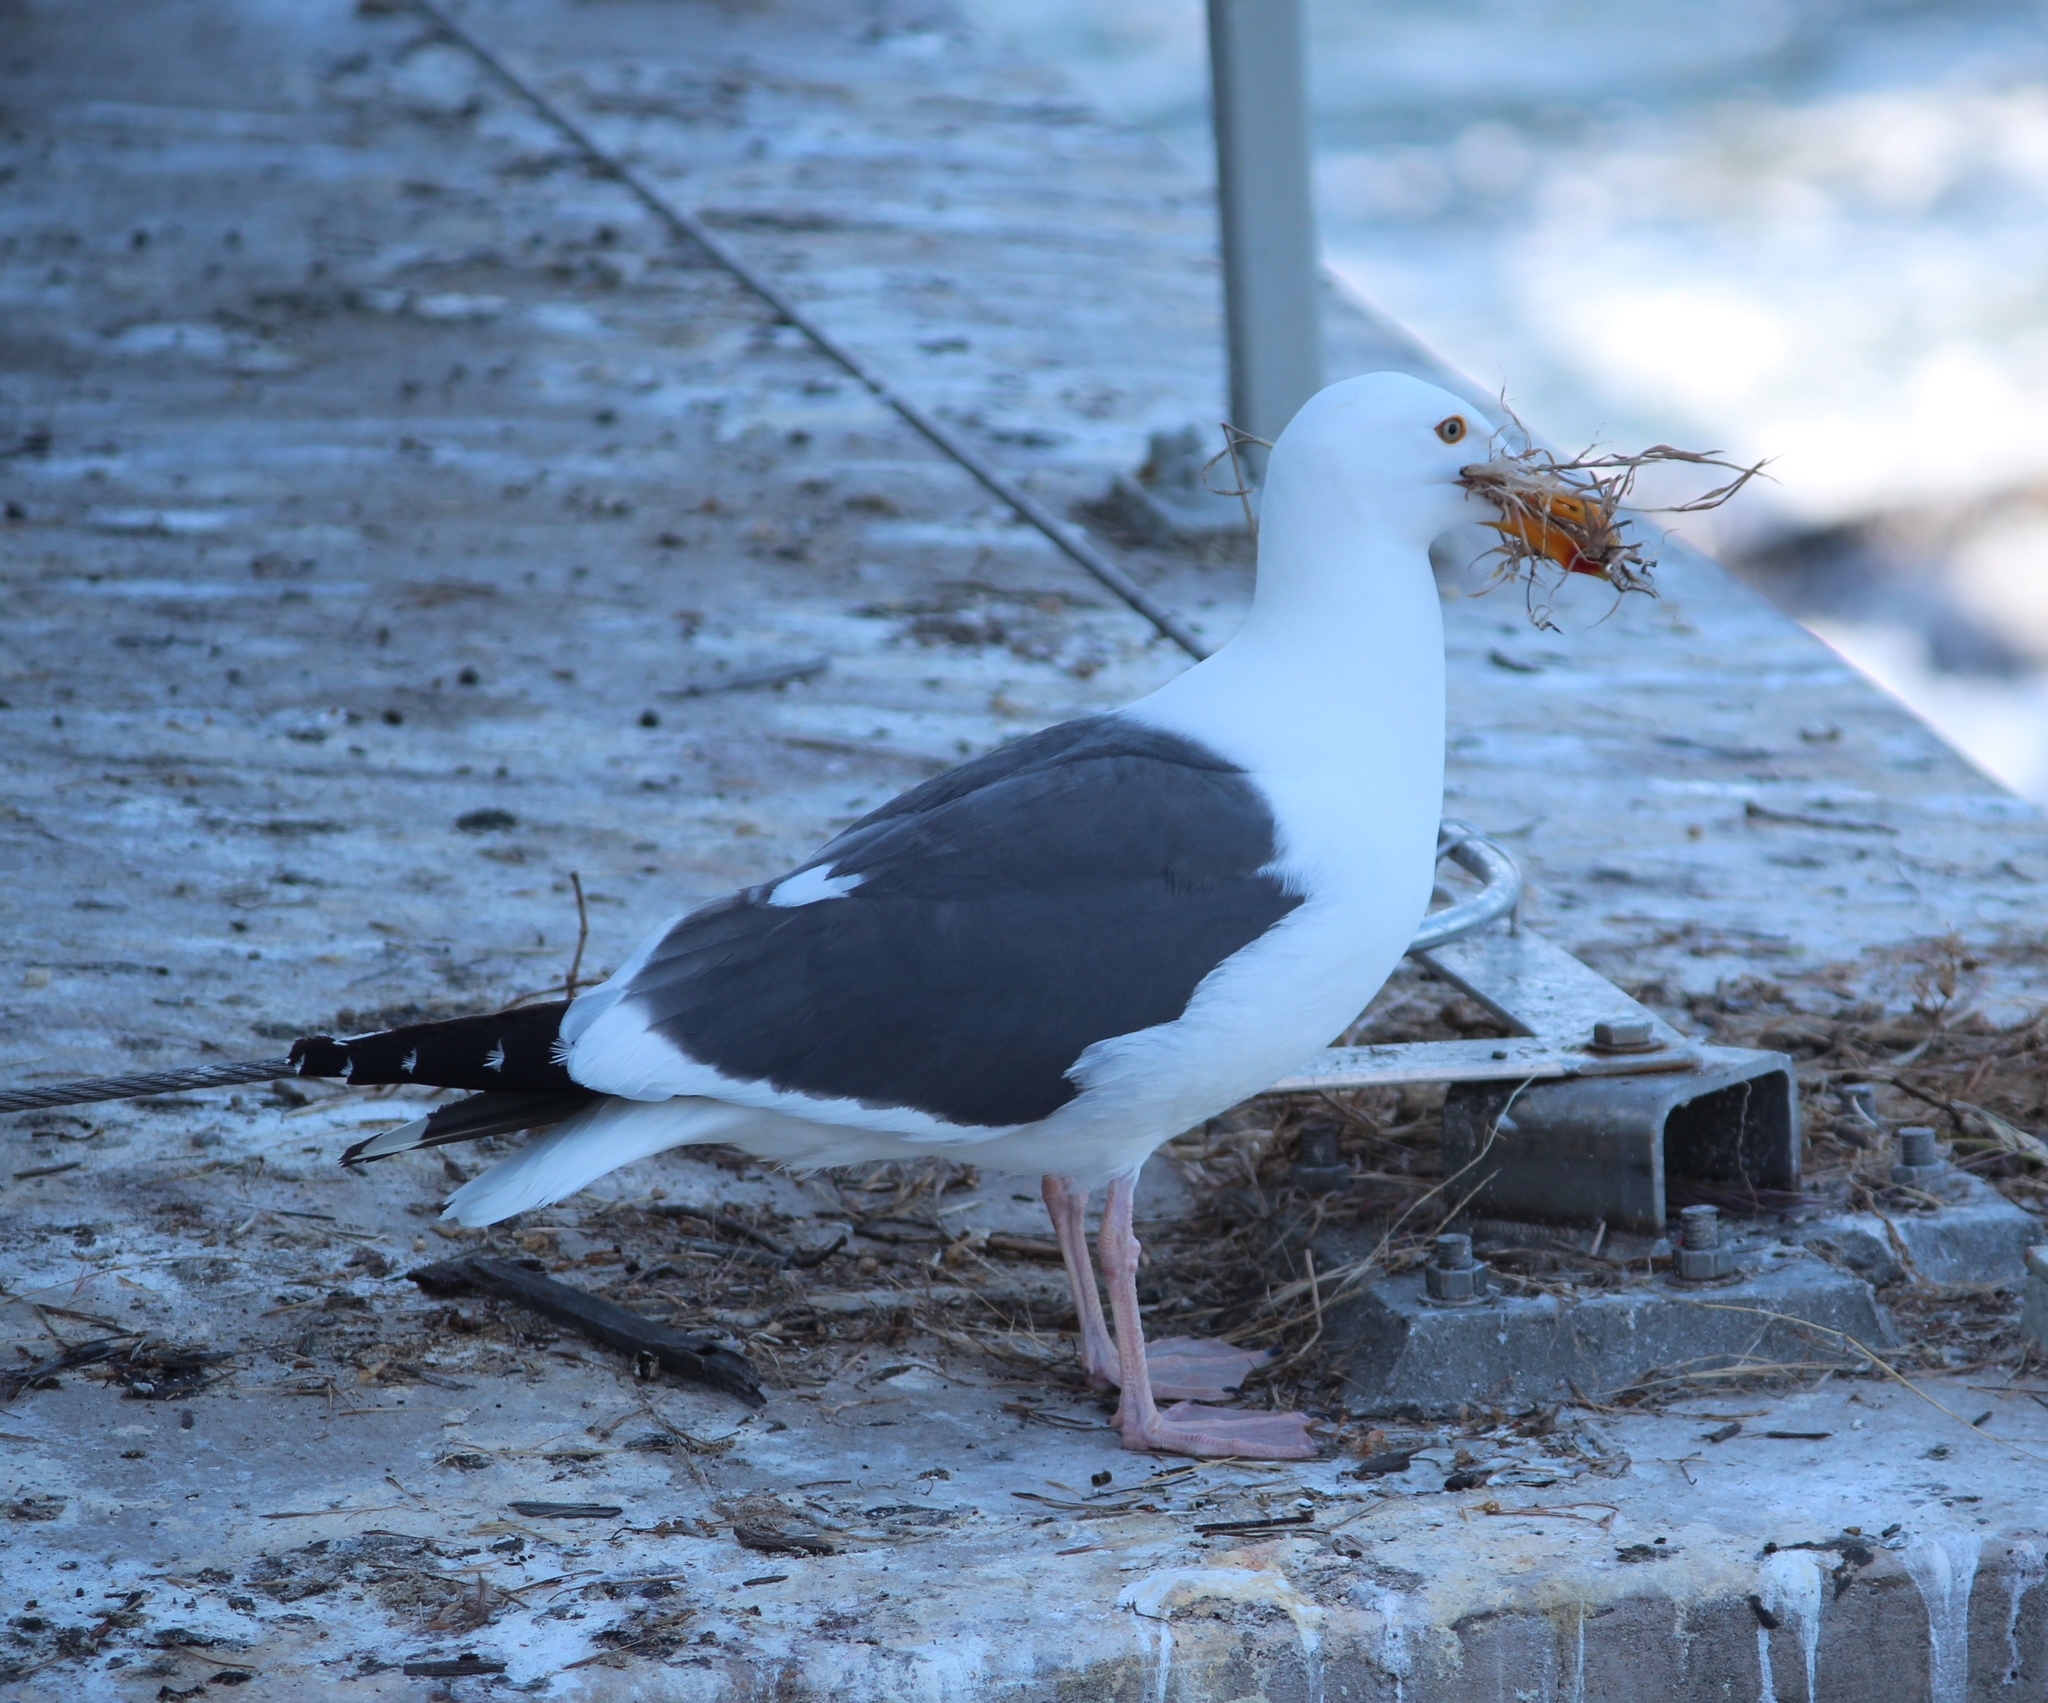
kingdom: Animalia
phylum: Chordata
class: Aves
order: Charadriiformes
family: Laridae
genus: Larus
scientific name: Larus occidentalis
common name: Western gull
